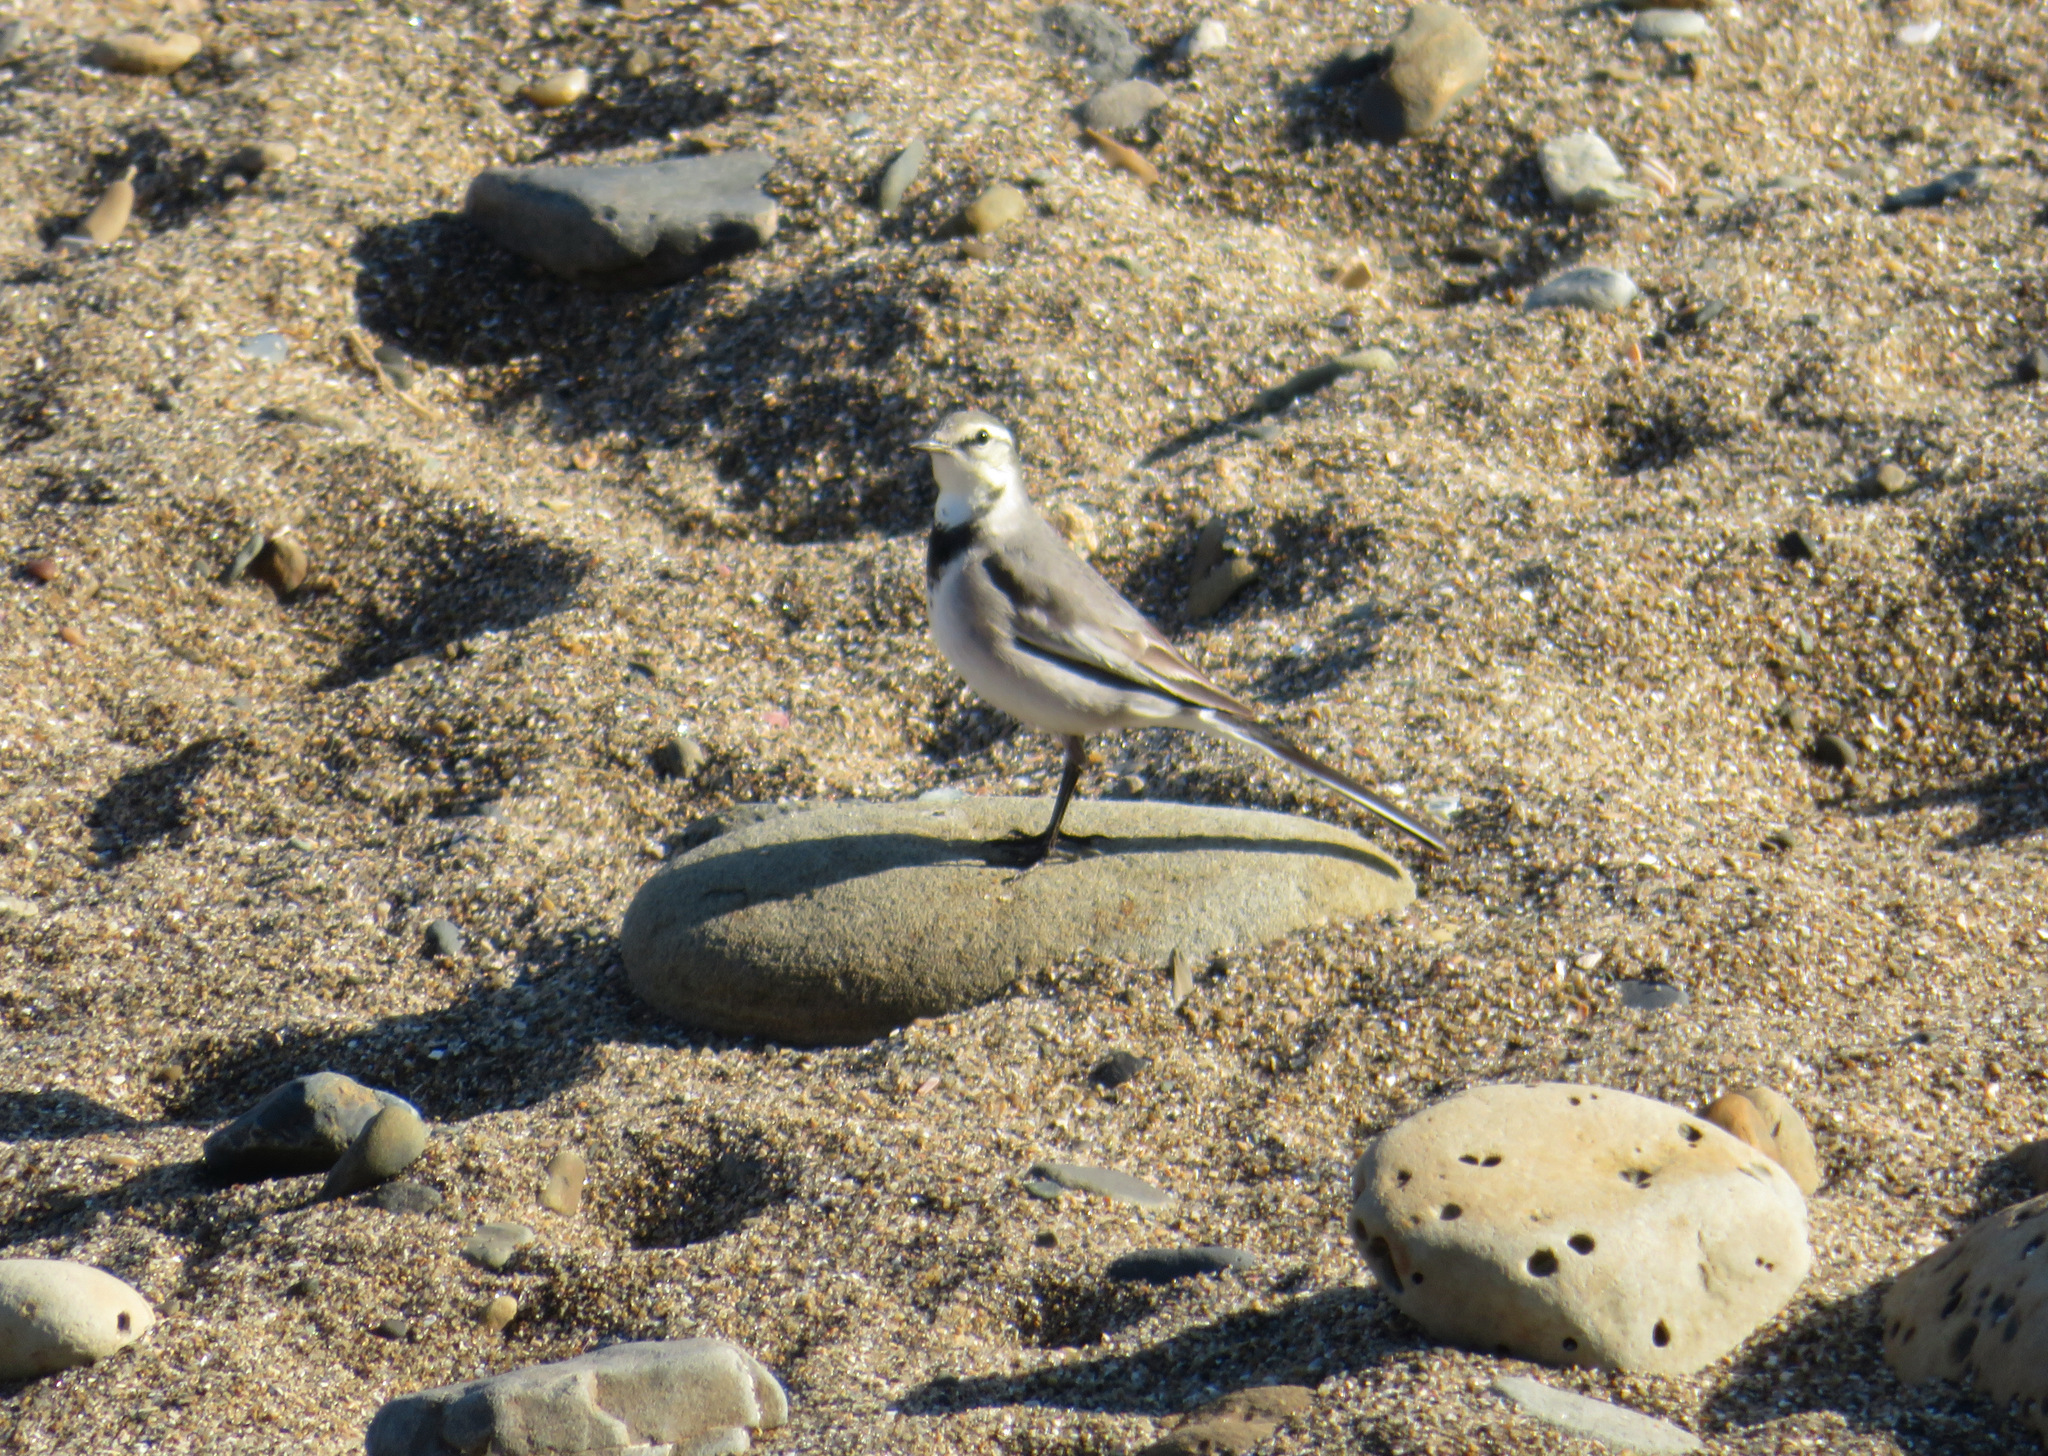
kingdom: Animalia
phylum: Chordata
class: Aves
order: Passeriformes
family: Motacillidae
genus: Motacilla
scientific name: Motacilla alba
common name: White wagtail
